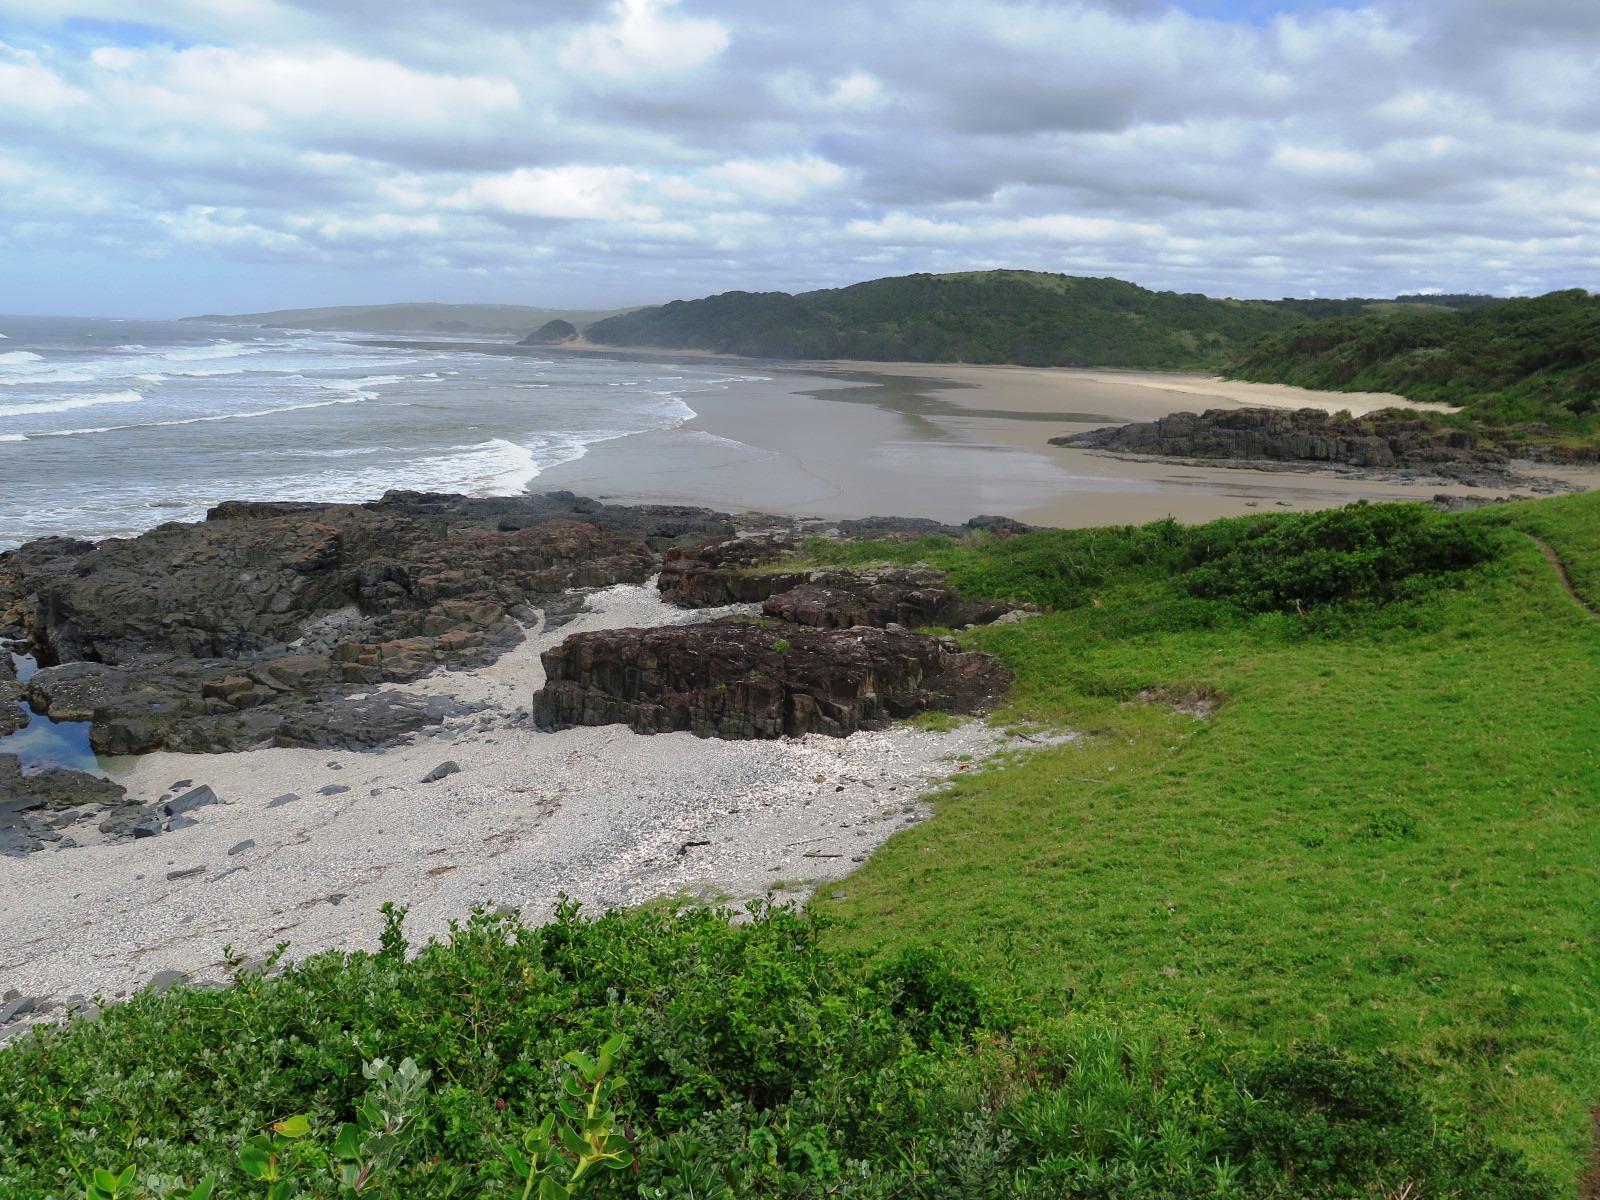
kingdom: Plantae
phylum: Tracheophyta
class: Liliopsida
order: Poales
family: Poaceae
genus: Stenotaphrum
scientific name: Stenotaphrum secundatum
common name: St. augustine grass
